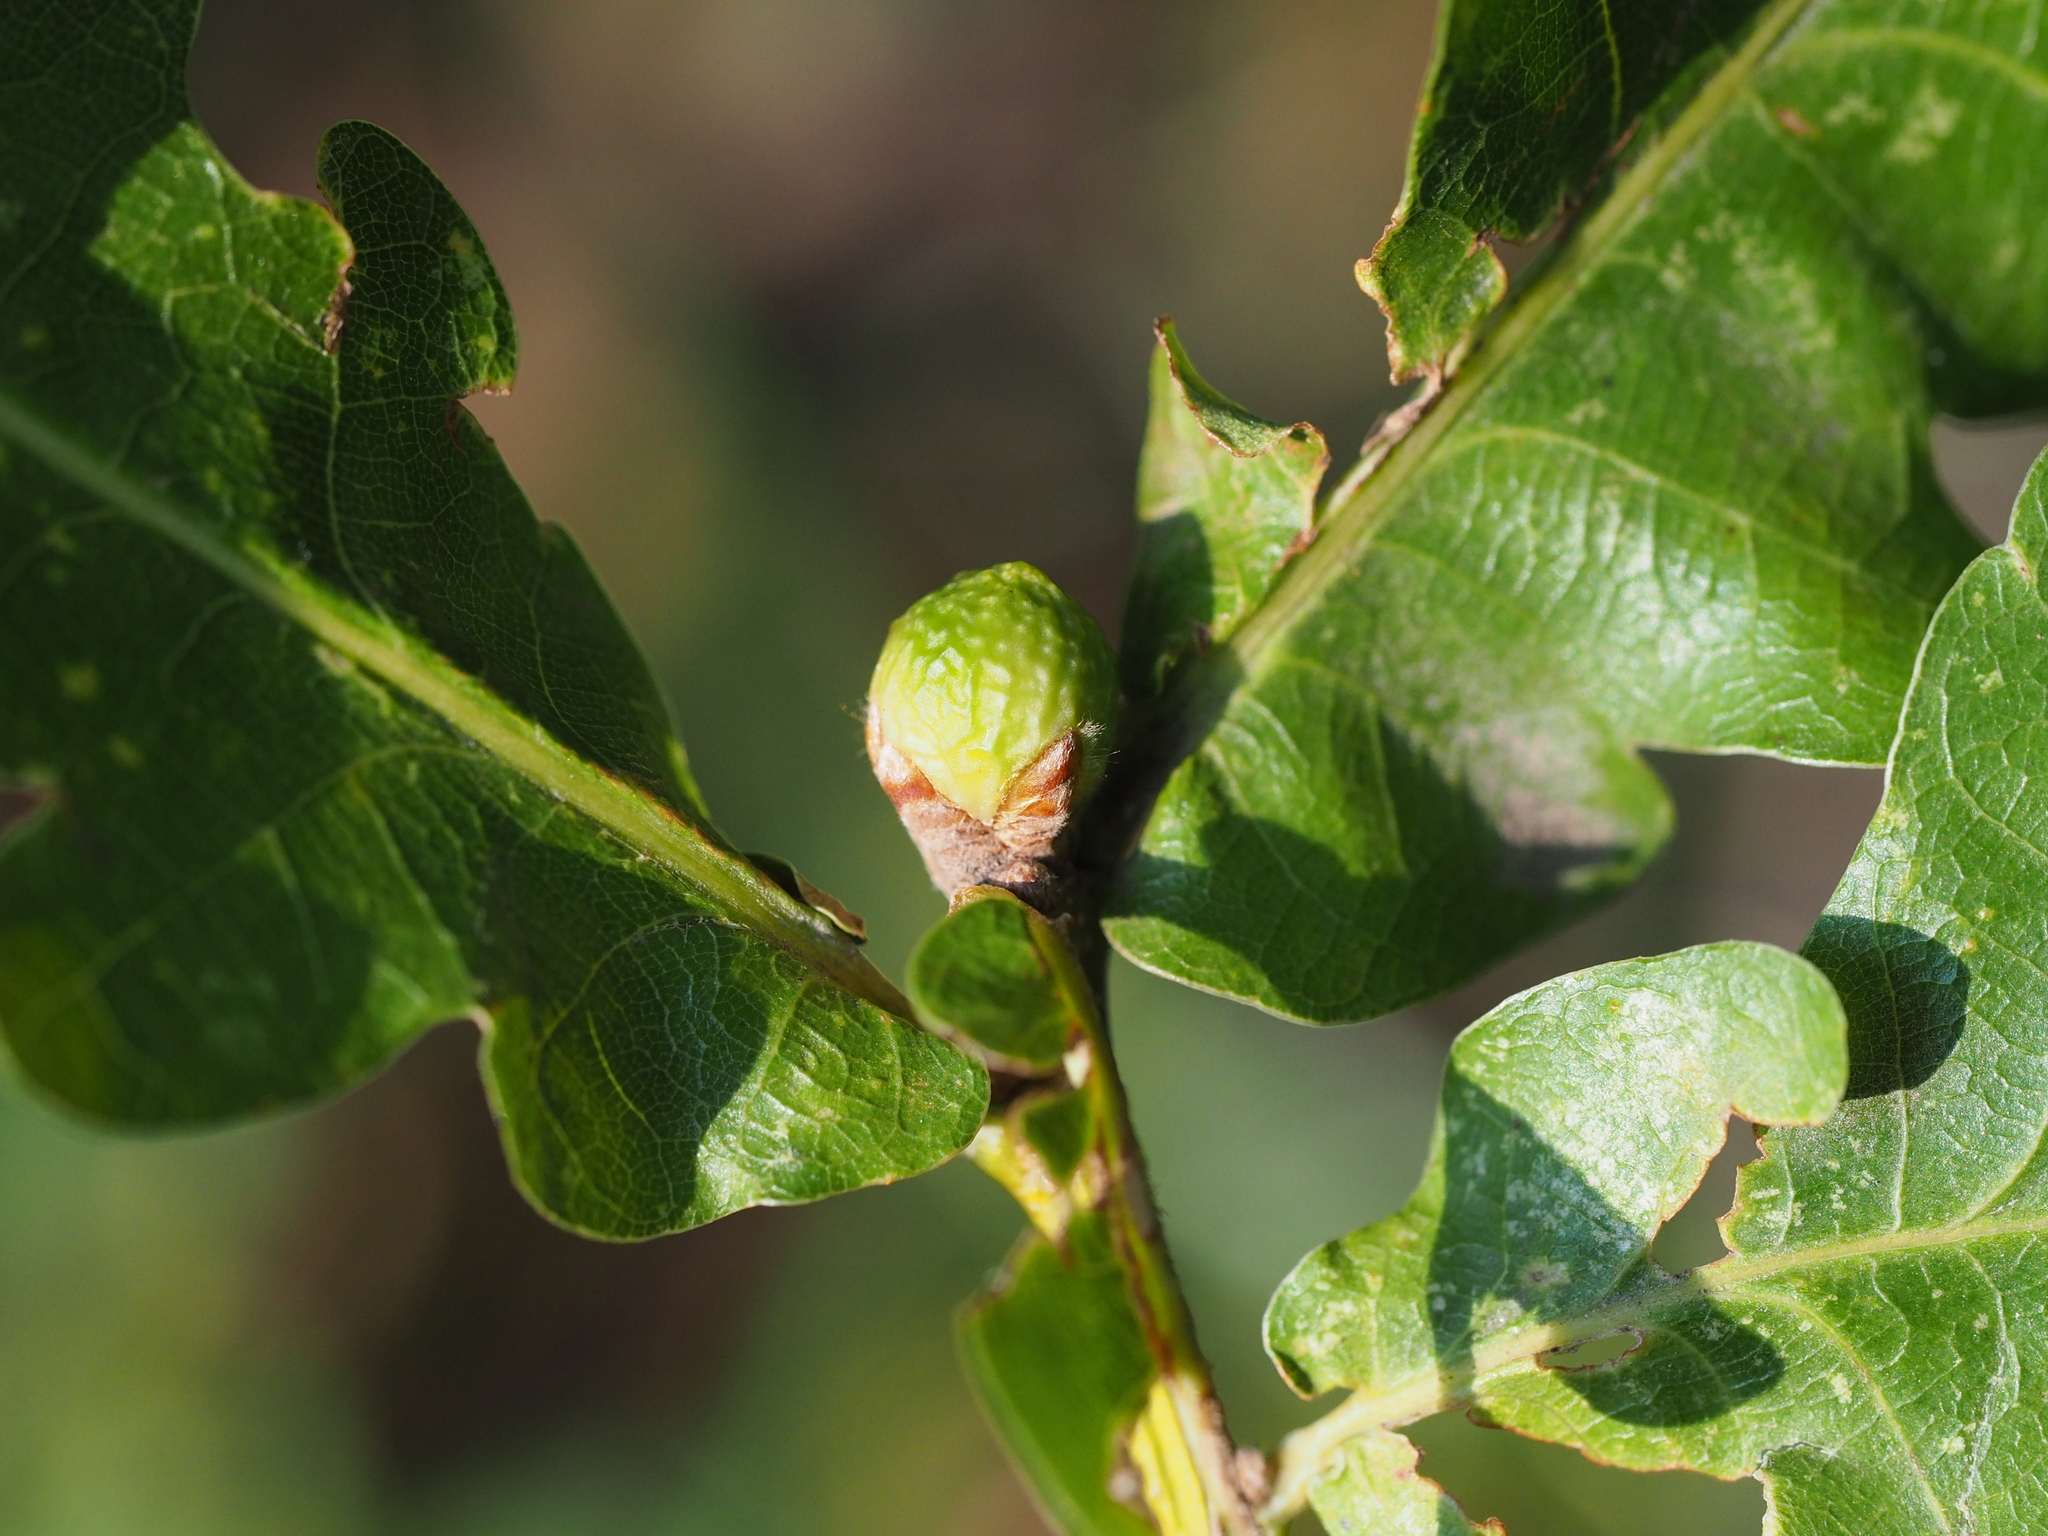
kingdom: Animalia
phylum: Arthropoda
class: Insecta
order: Hymenoptera
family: Cynipidae
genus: Andricus
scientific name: Andricus inflator
